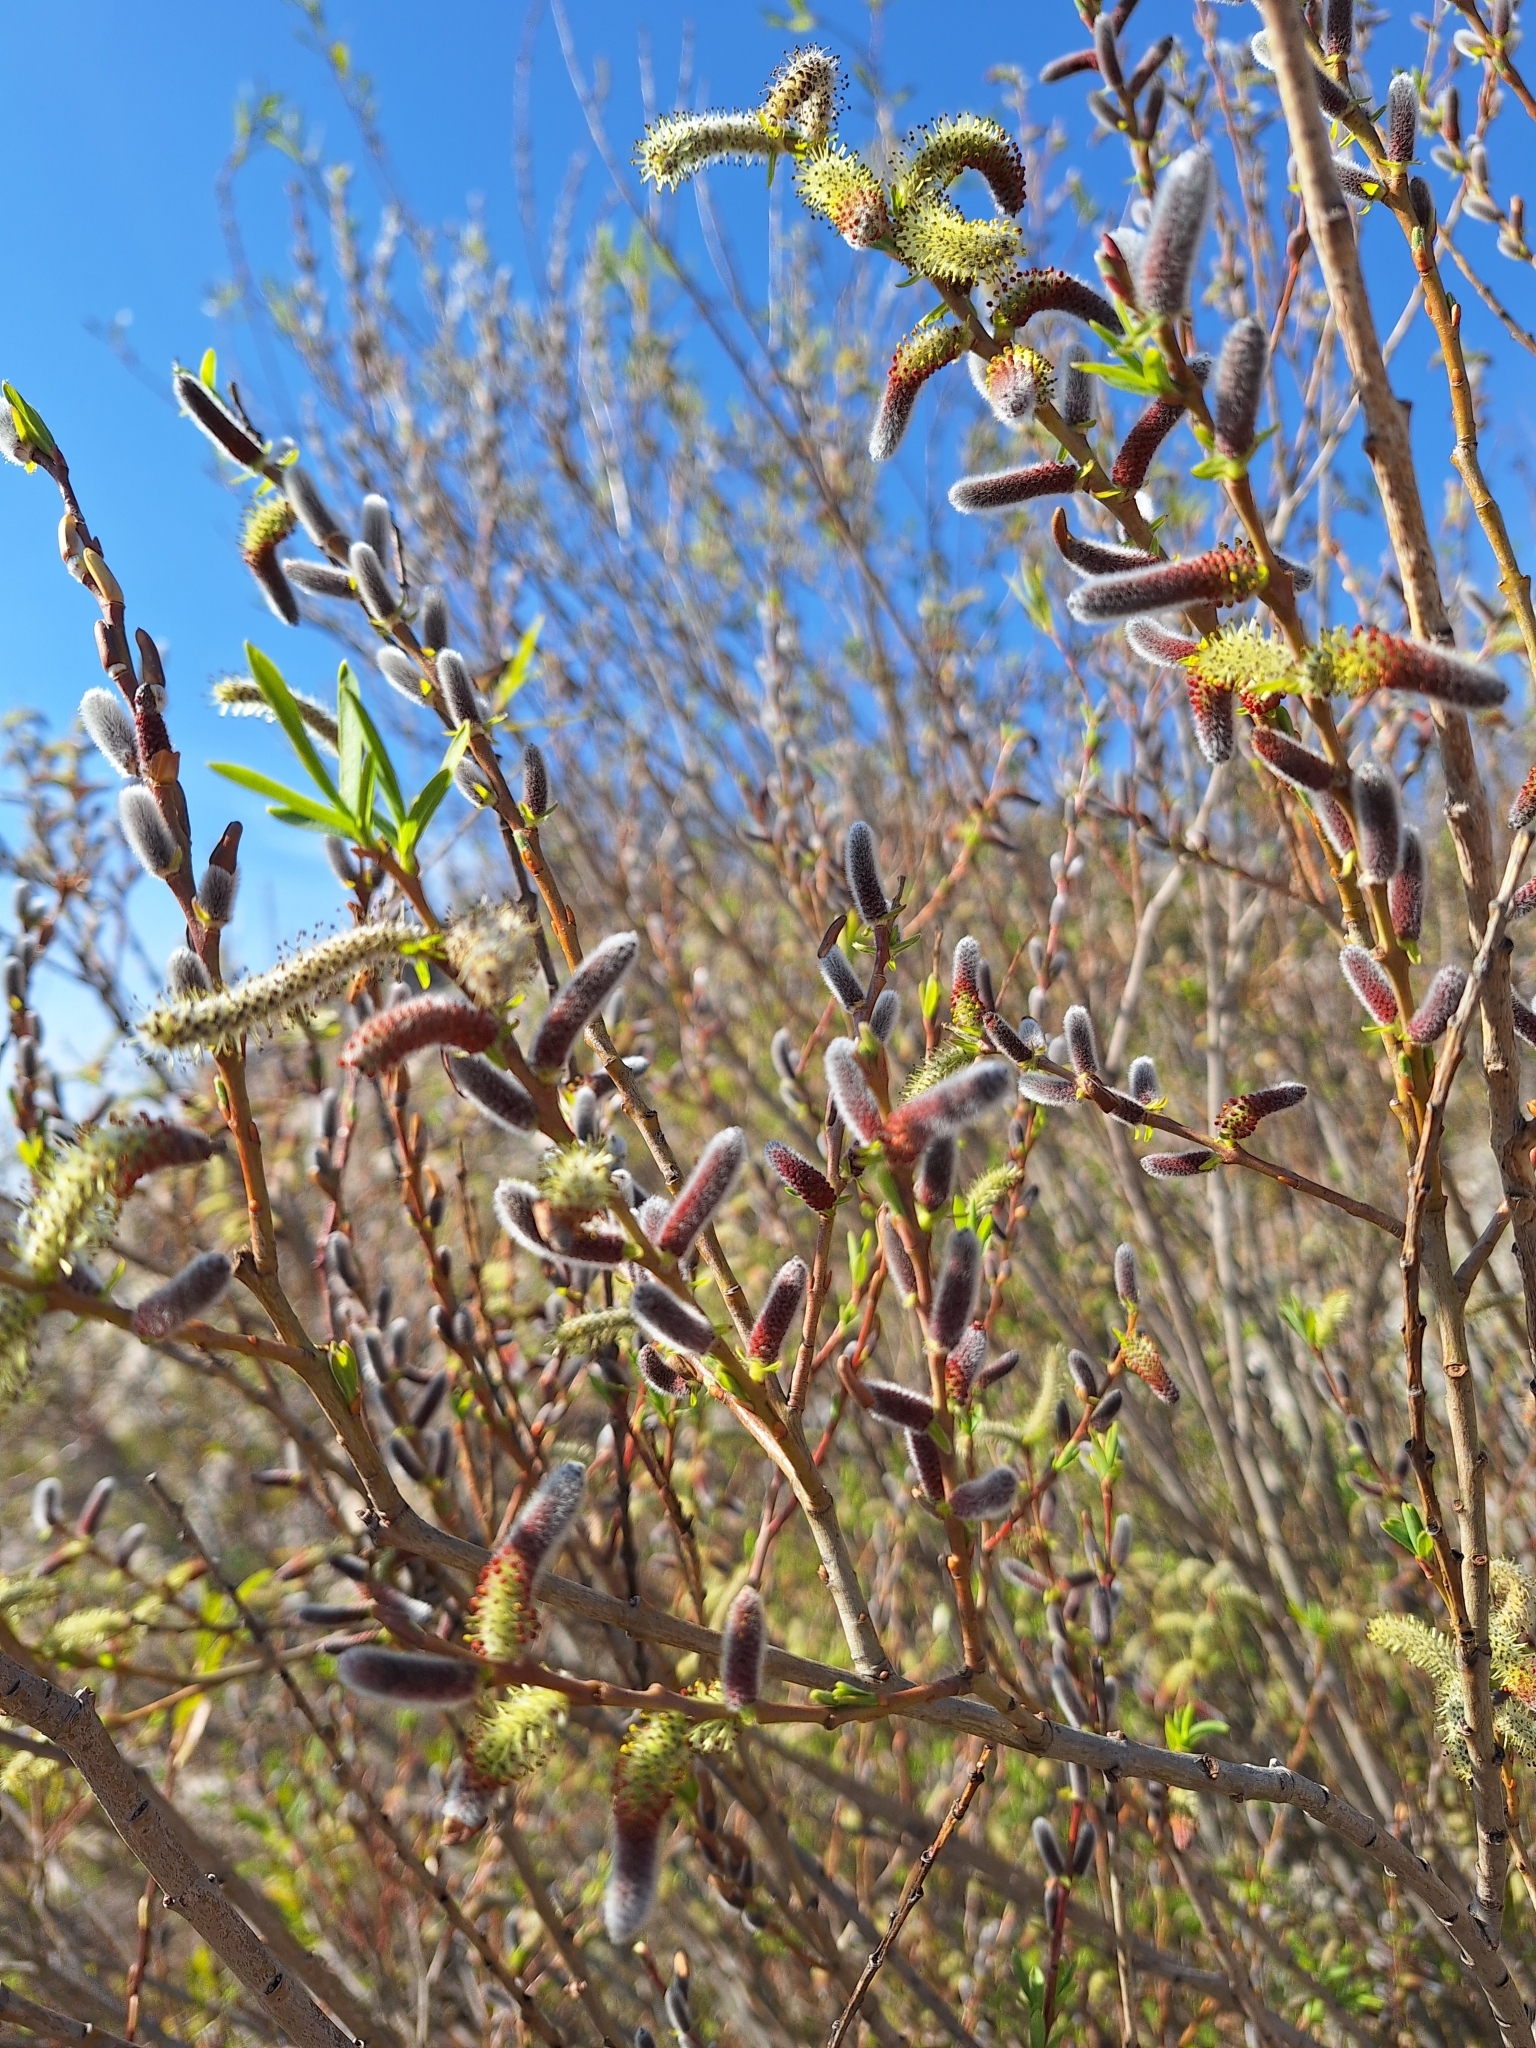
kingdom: Plantae
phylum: Tracheophyta
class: Magnoliopsida
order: Malpighiales
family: Salicaceae
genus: Salix
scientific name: Salix purpurea
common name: Purple willow
